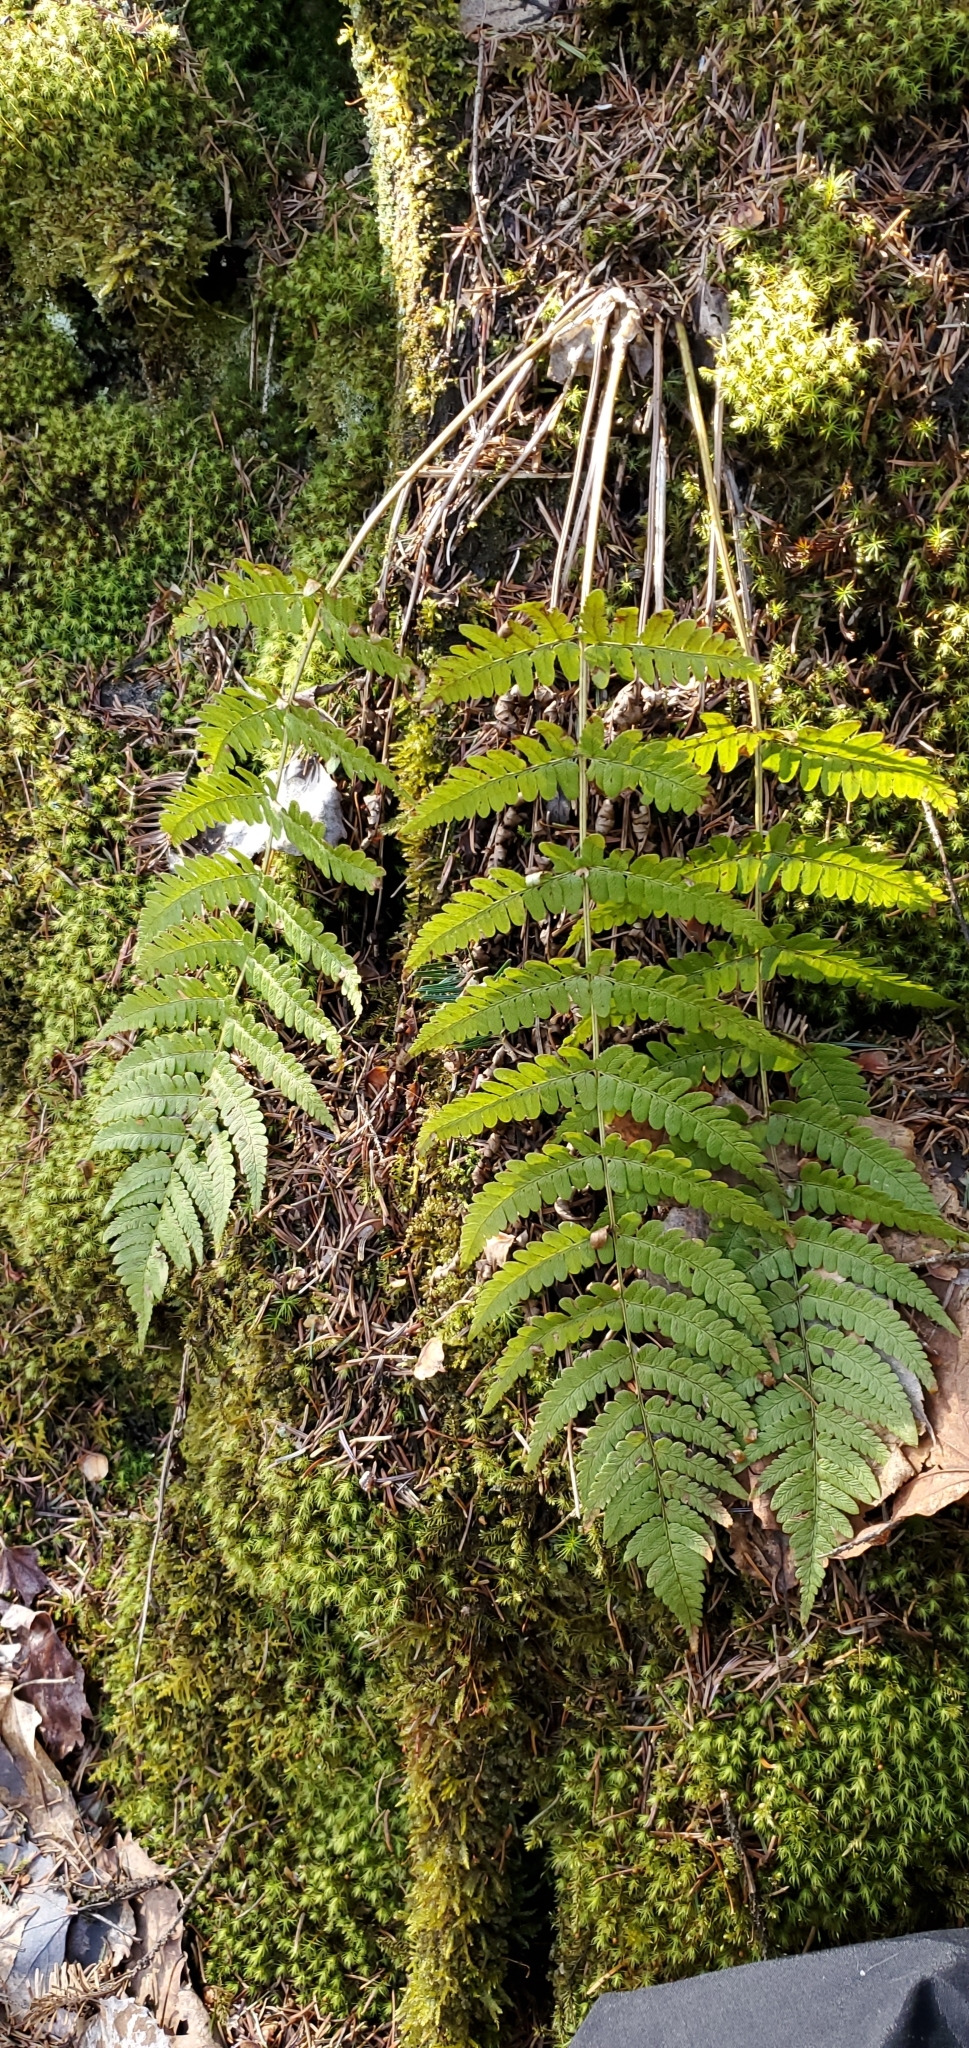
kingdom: Plantae
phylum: Tracheophyta
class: Polypodiopsida
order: Polypodiales
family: Dryopteridaceae
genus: Dryopteris
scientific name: Dryopteris marginalis
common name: Marginal wood fern
